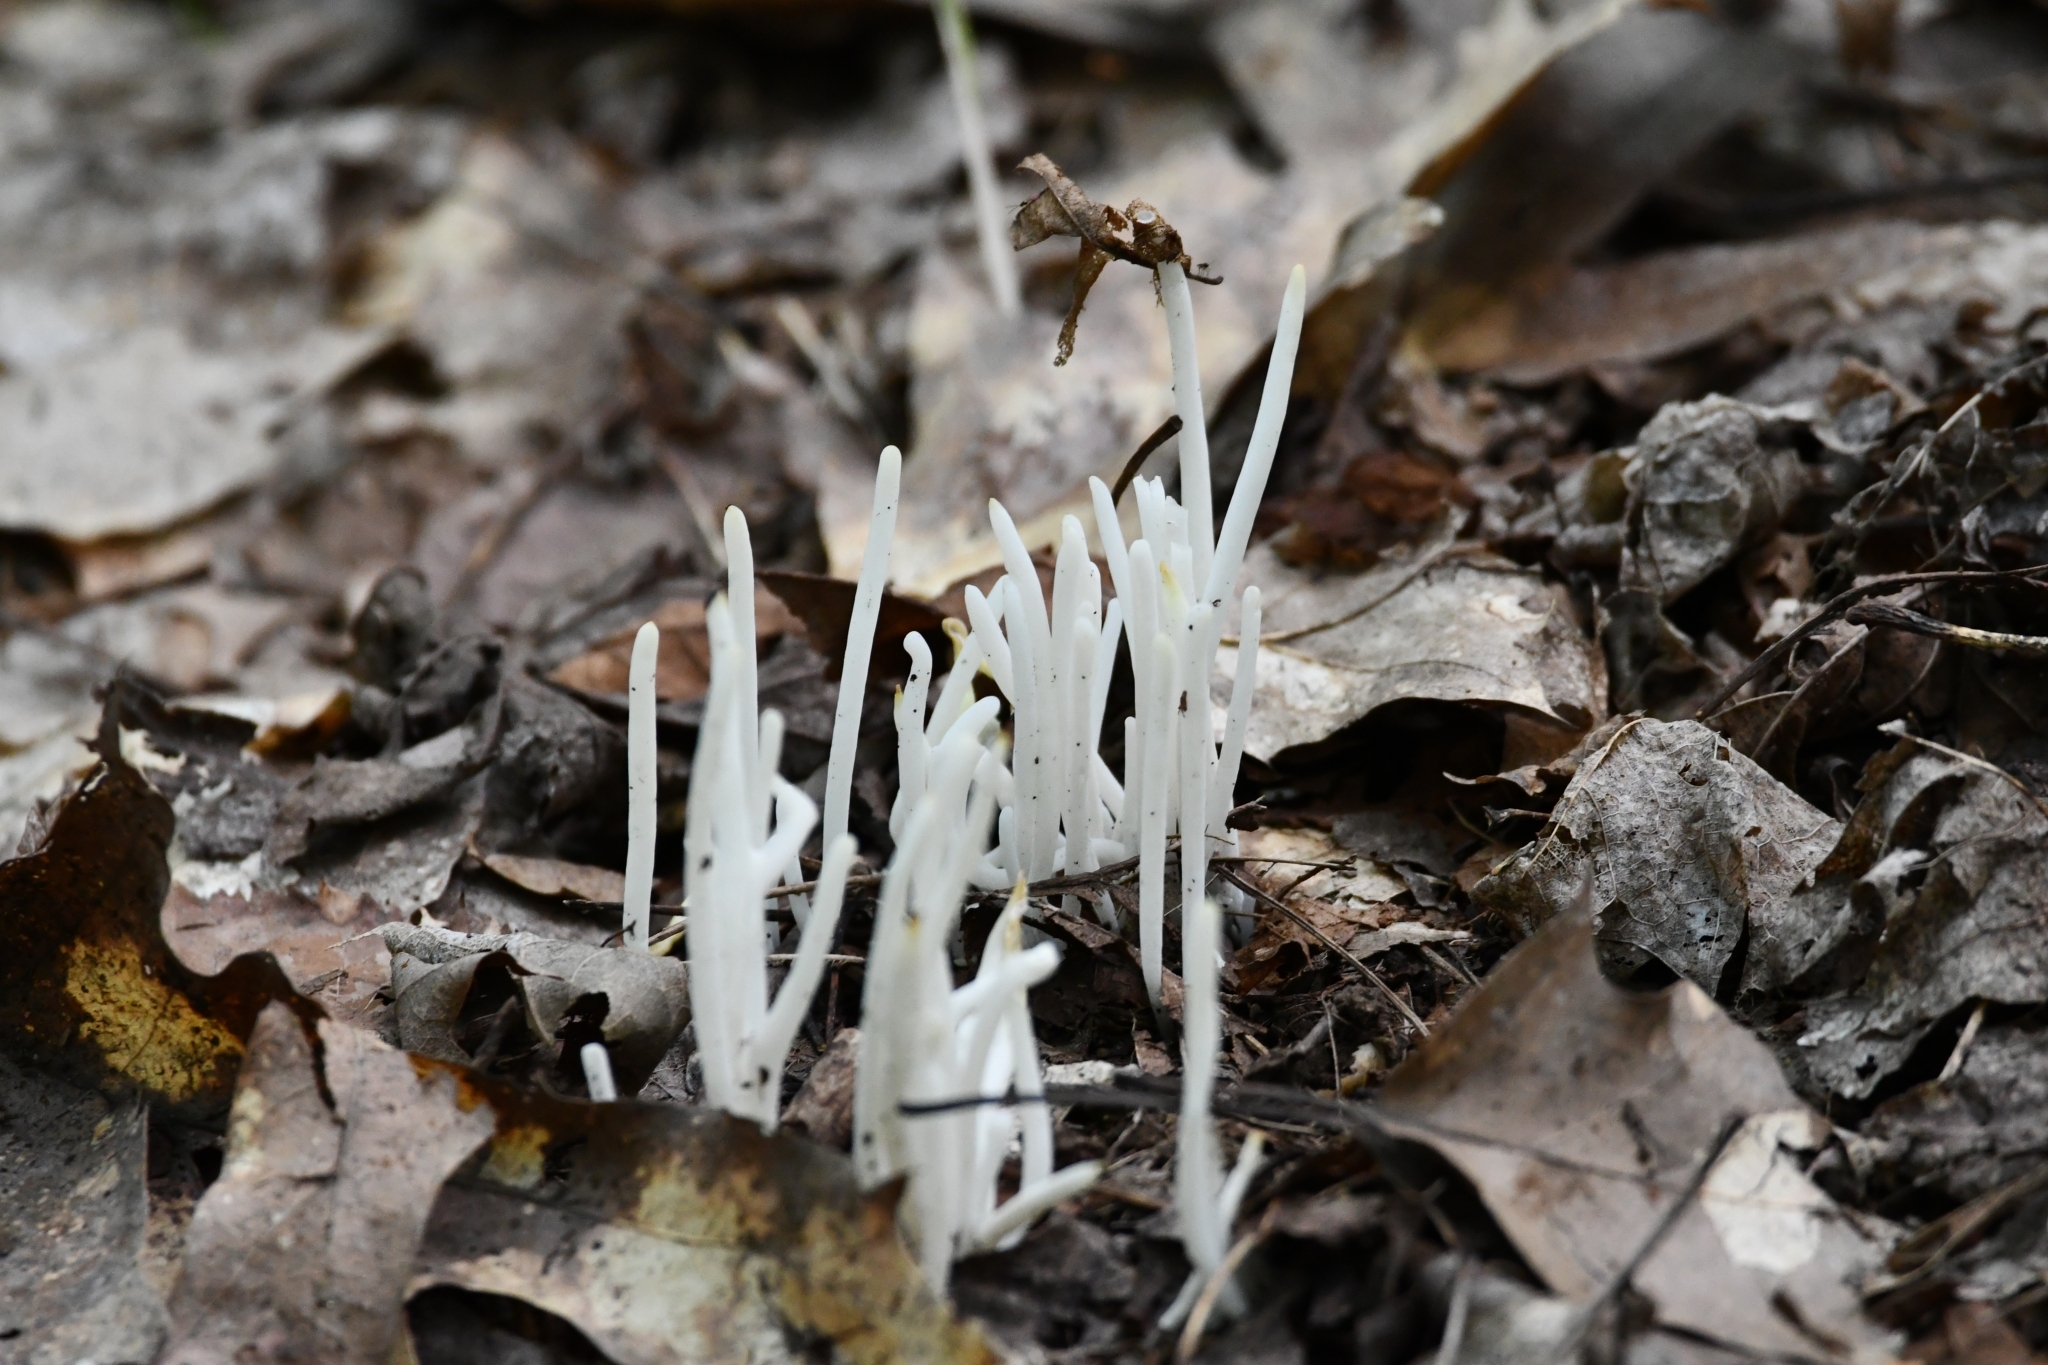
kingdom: Fungi
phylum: Basidiomycota
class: Agaricomycetes
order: Agaricales
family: Clavariaceae
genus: Clavaria
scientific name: Clavaria fragilis
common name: White spindles
